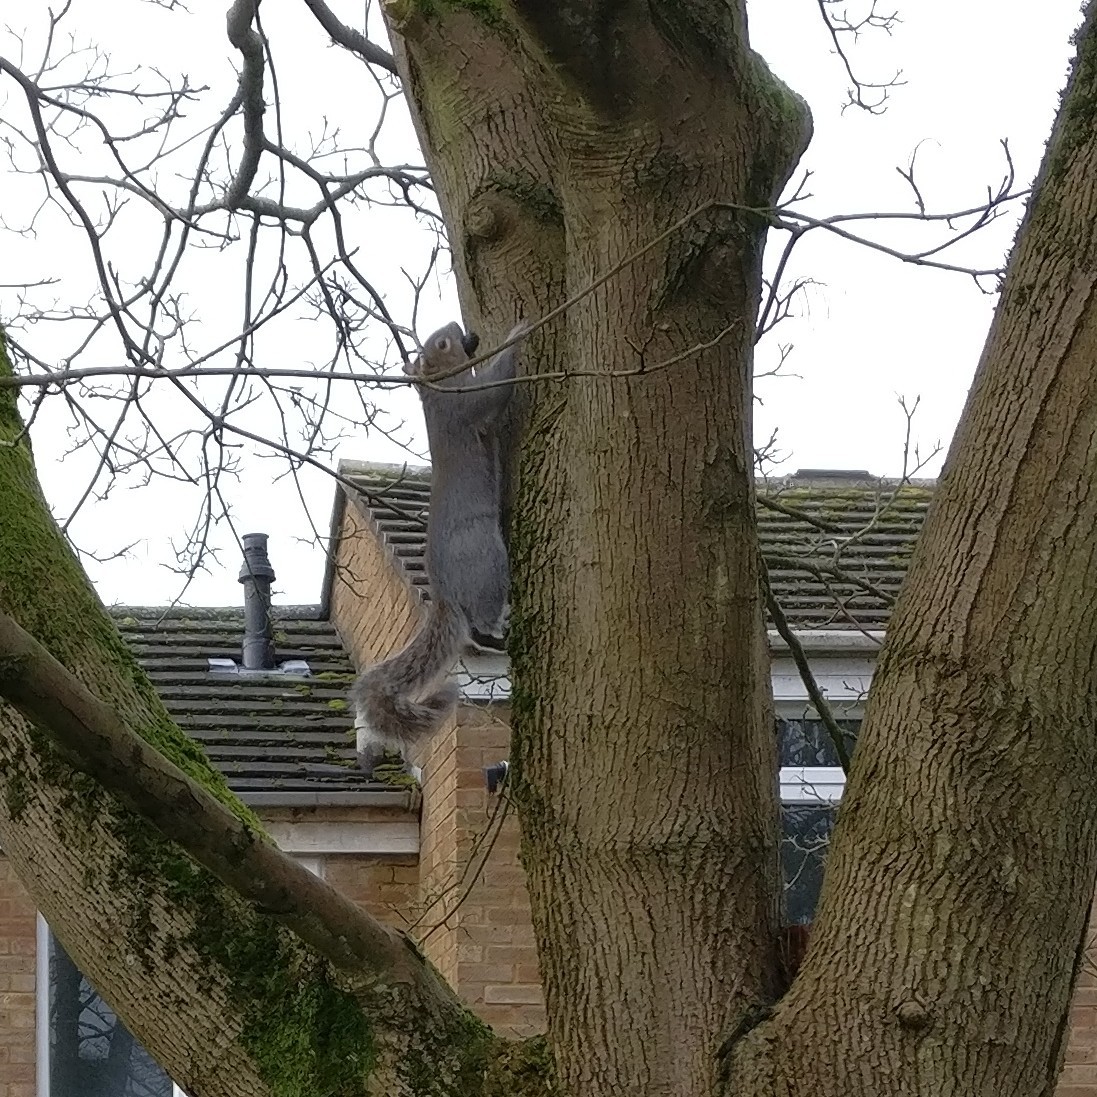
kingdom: Animalia
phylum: Chordata
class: Mammalia
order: Rodentia
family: Sciuridae
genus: Sciurus
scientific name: Sciurus carolinensis
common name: Eastern gray squirrel
